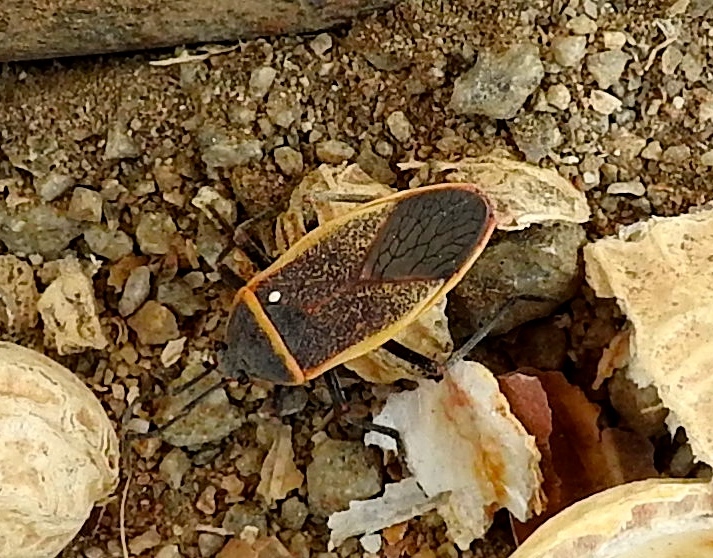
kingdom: Animalia
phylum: Arthropoda
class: Insecta
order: Hemiptera
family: Largidae
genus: Largus
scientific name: Largus
